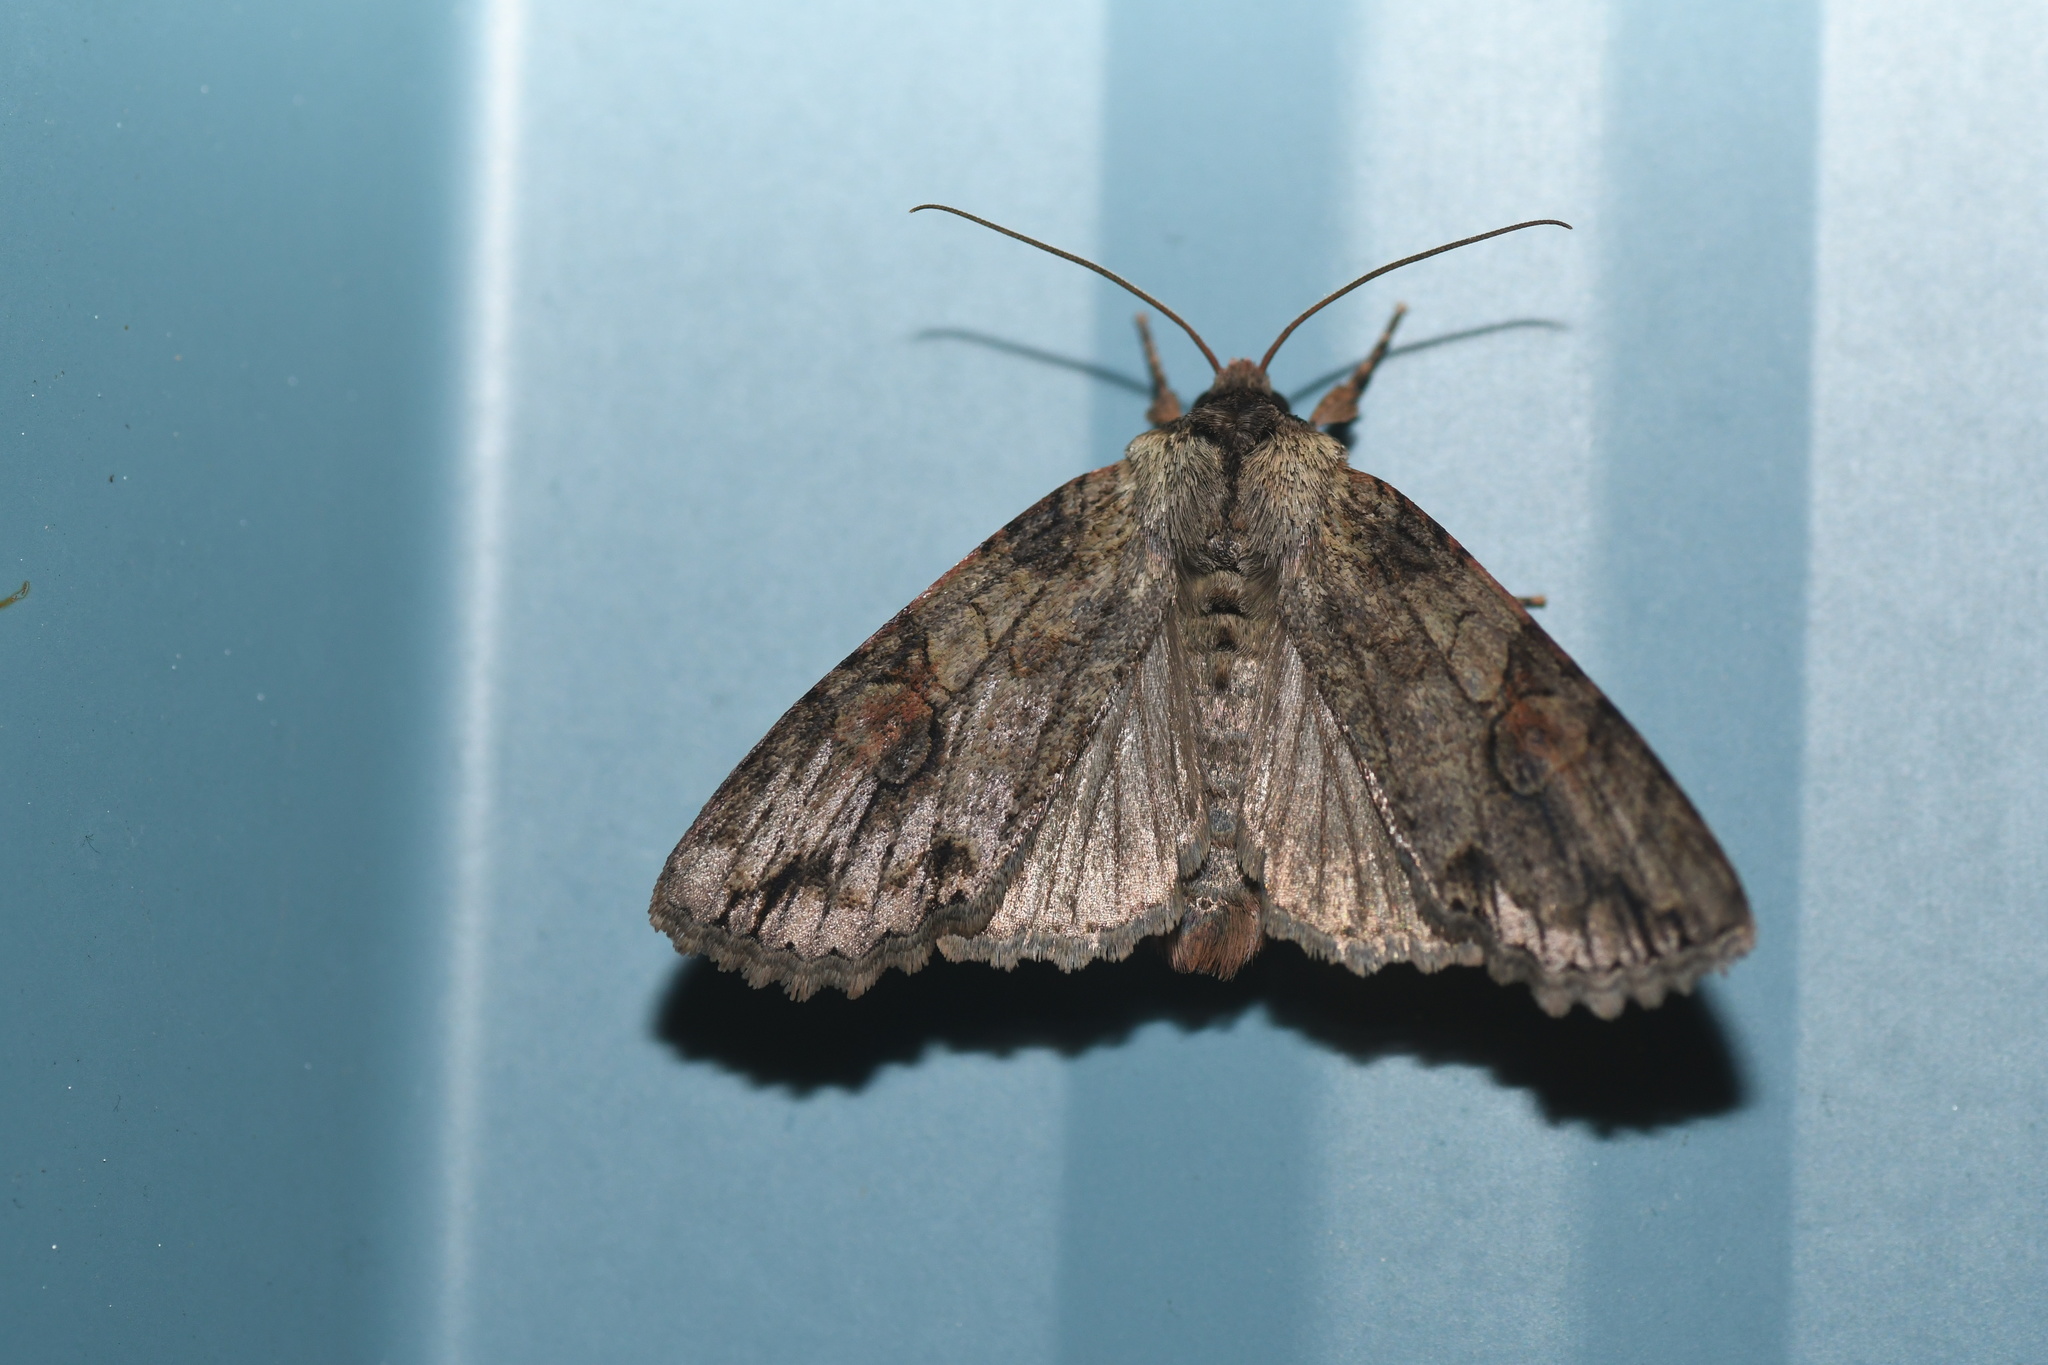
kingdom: Animalia
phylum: Arthropoda
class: Insecta
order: Lepidoptera
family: Noctuidae
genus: Achatia
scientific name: Achatia latex
